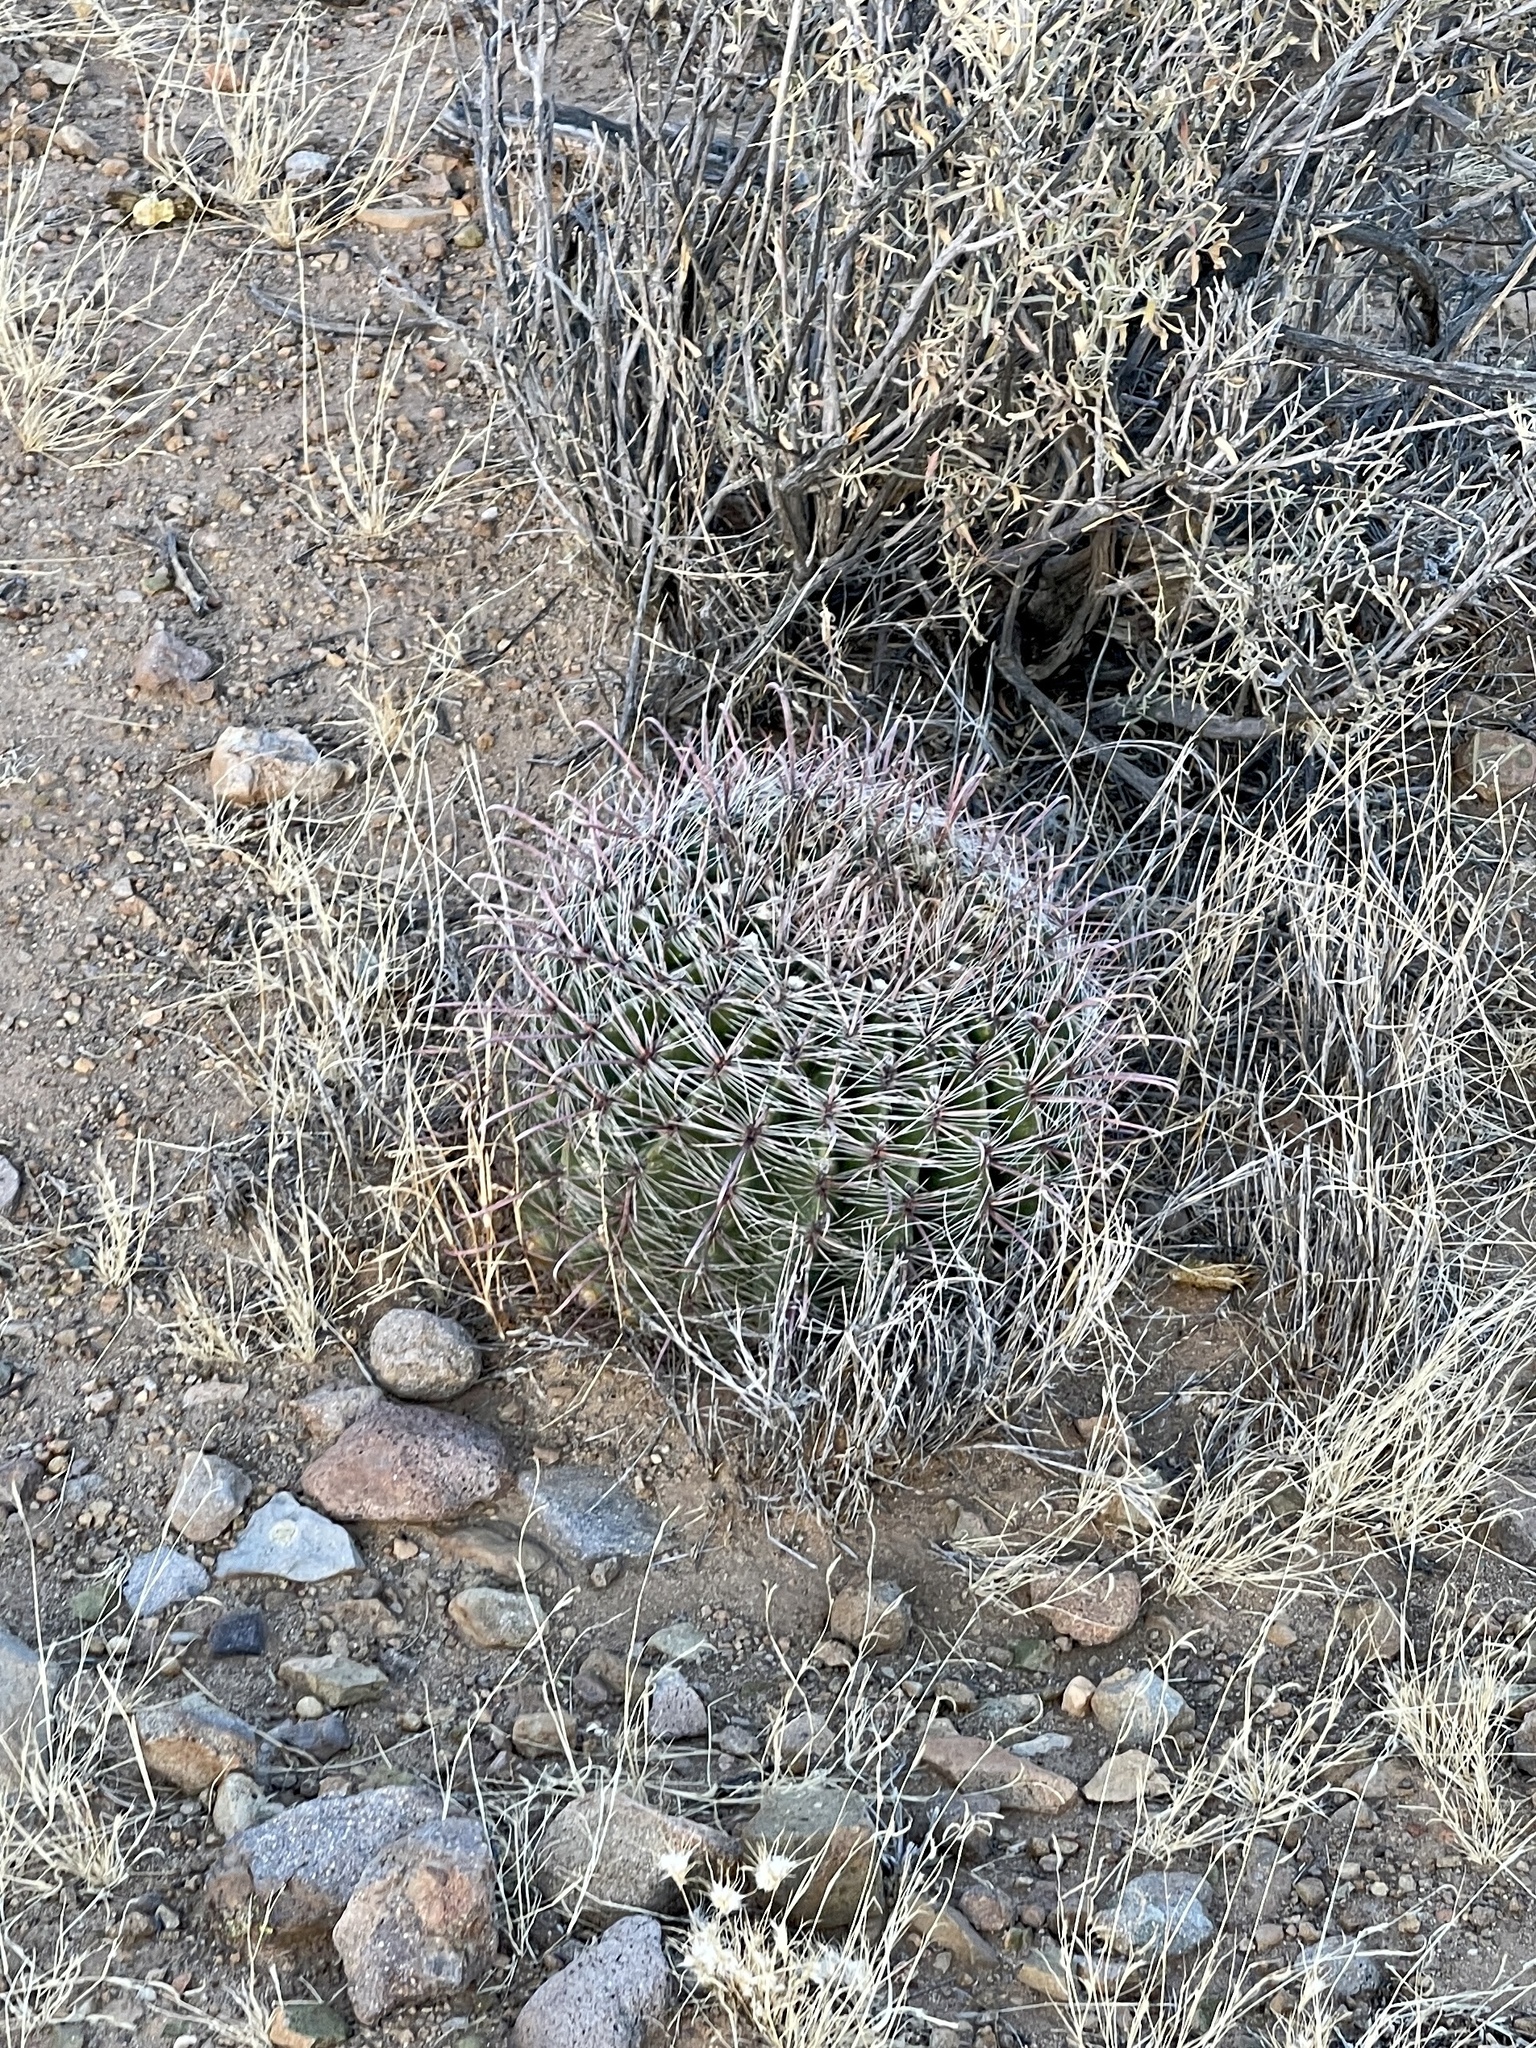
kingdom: Plantae
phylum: Tracheophyta
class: Magnoliopsida
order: Caryophyllales
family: Cactaceae
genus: Ferocactus
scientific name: Ferocactus wislizeni
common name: Candy barrel cactus
